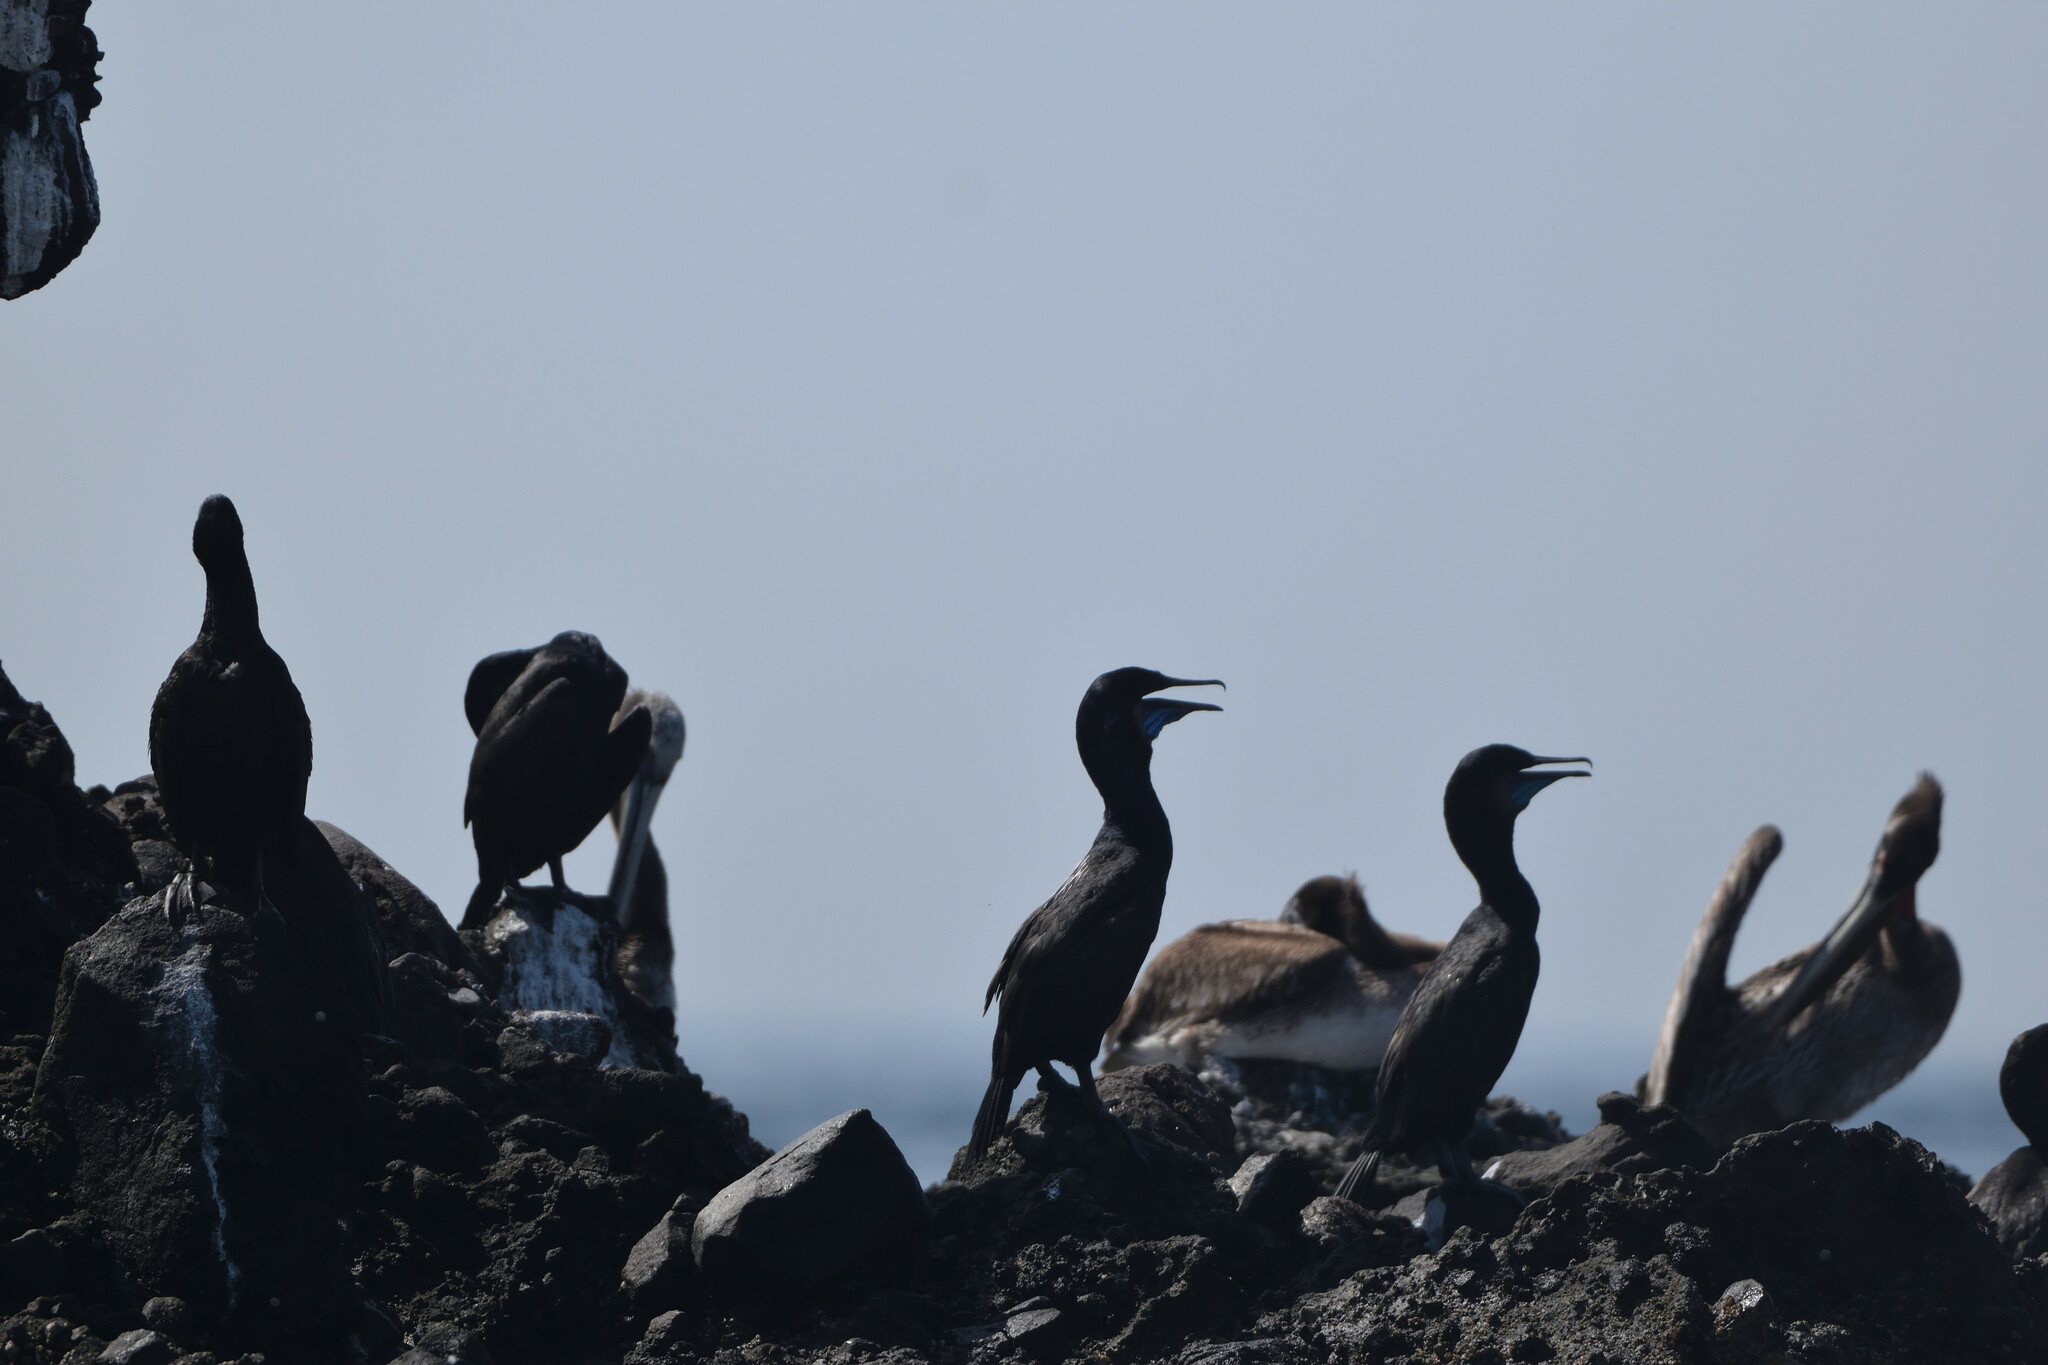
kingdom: Animalia
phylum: Chordata
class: Aves
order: Suliformes
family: Phalacrocoracidae
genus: Urile
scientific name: Urile penicillatus
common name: Brandt's cormorant
